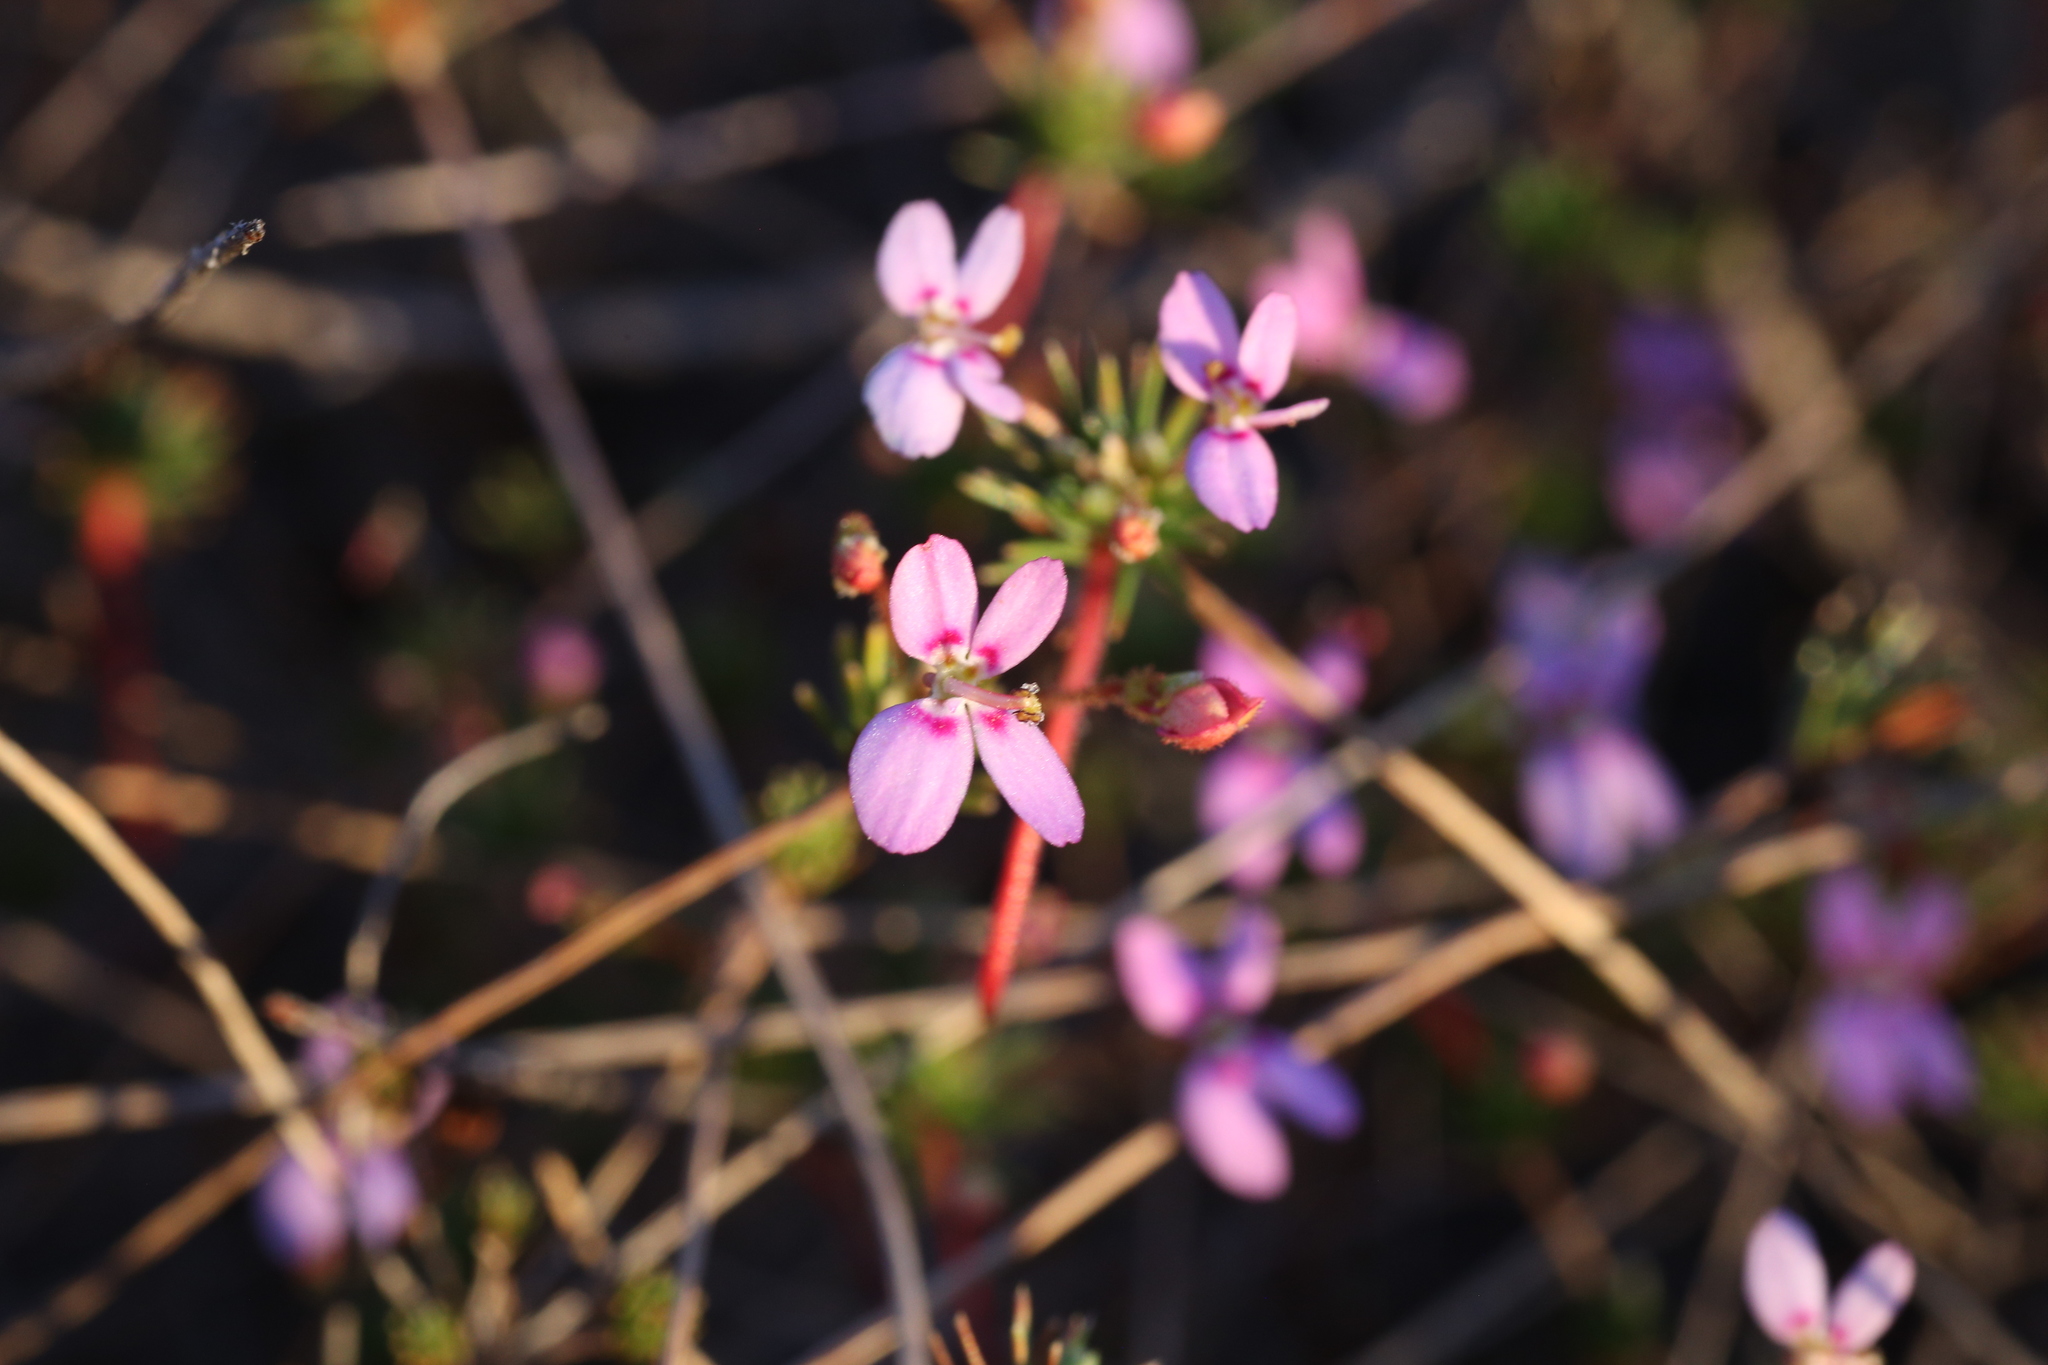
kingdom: Plantae
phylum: Tracheophyta
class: Magnoliopsida
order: Asterales
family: Stylidiaceae
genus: Stylidium
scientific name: Stylidium repens
